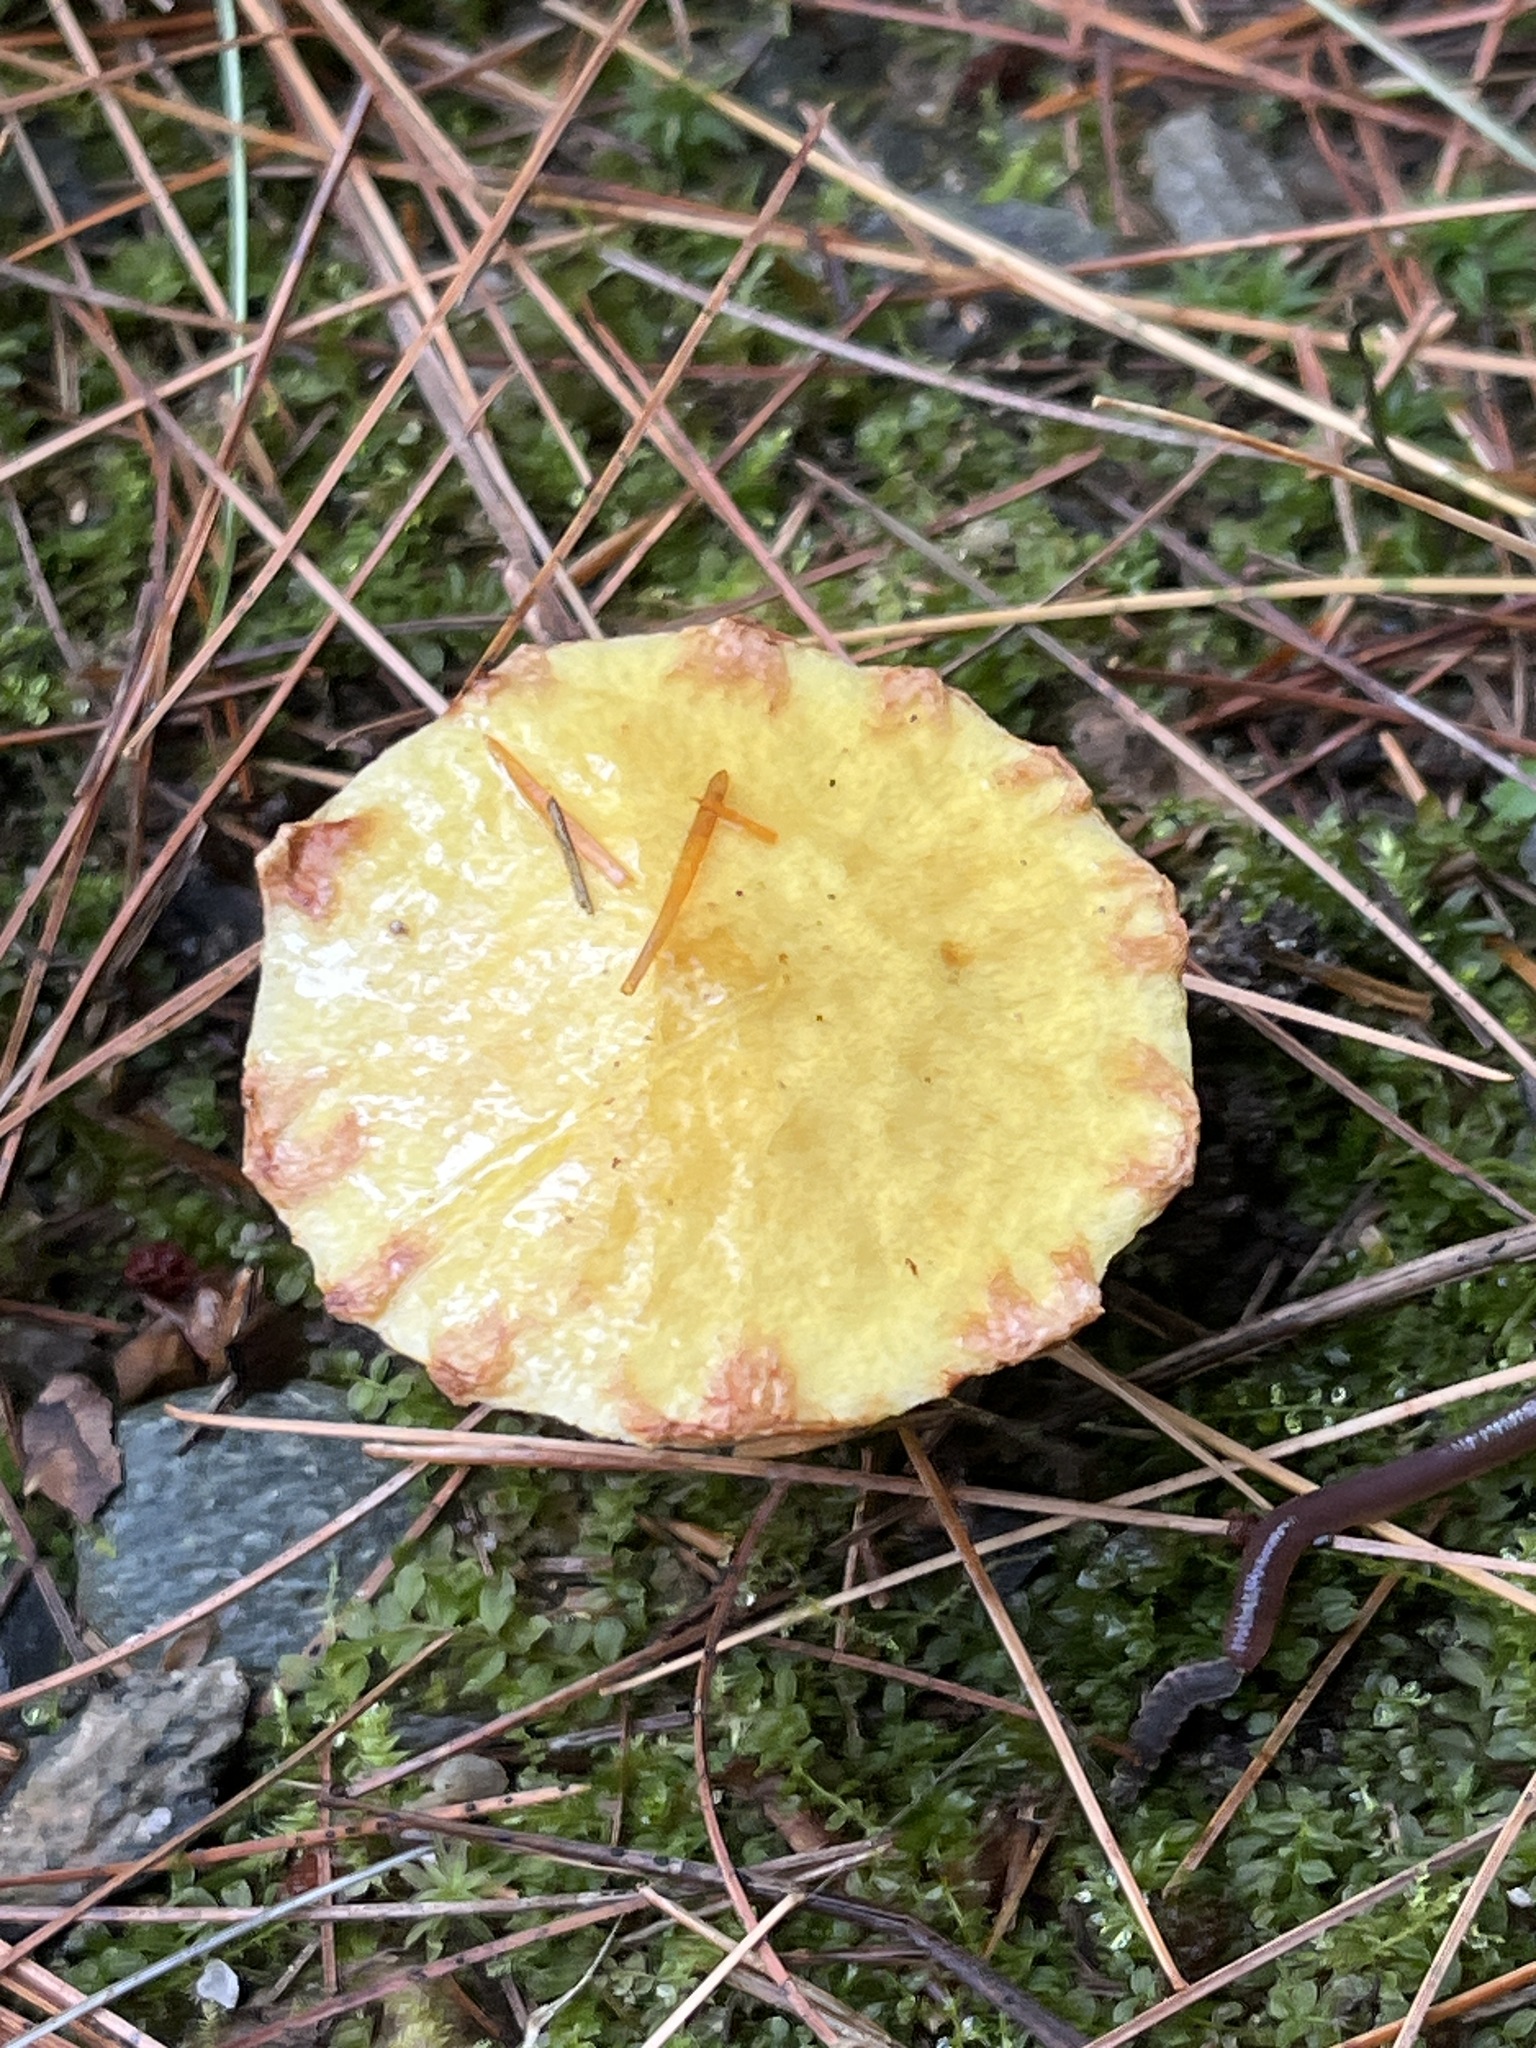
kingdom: Fungi
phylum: Basidiomycota
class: Agaricomycetes
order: Boletales
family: Suillaceae
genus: Suillus
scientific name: Suillus americanus
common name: Chicken fat mushroom
